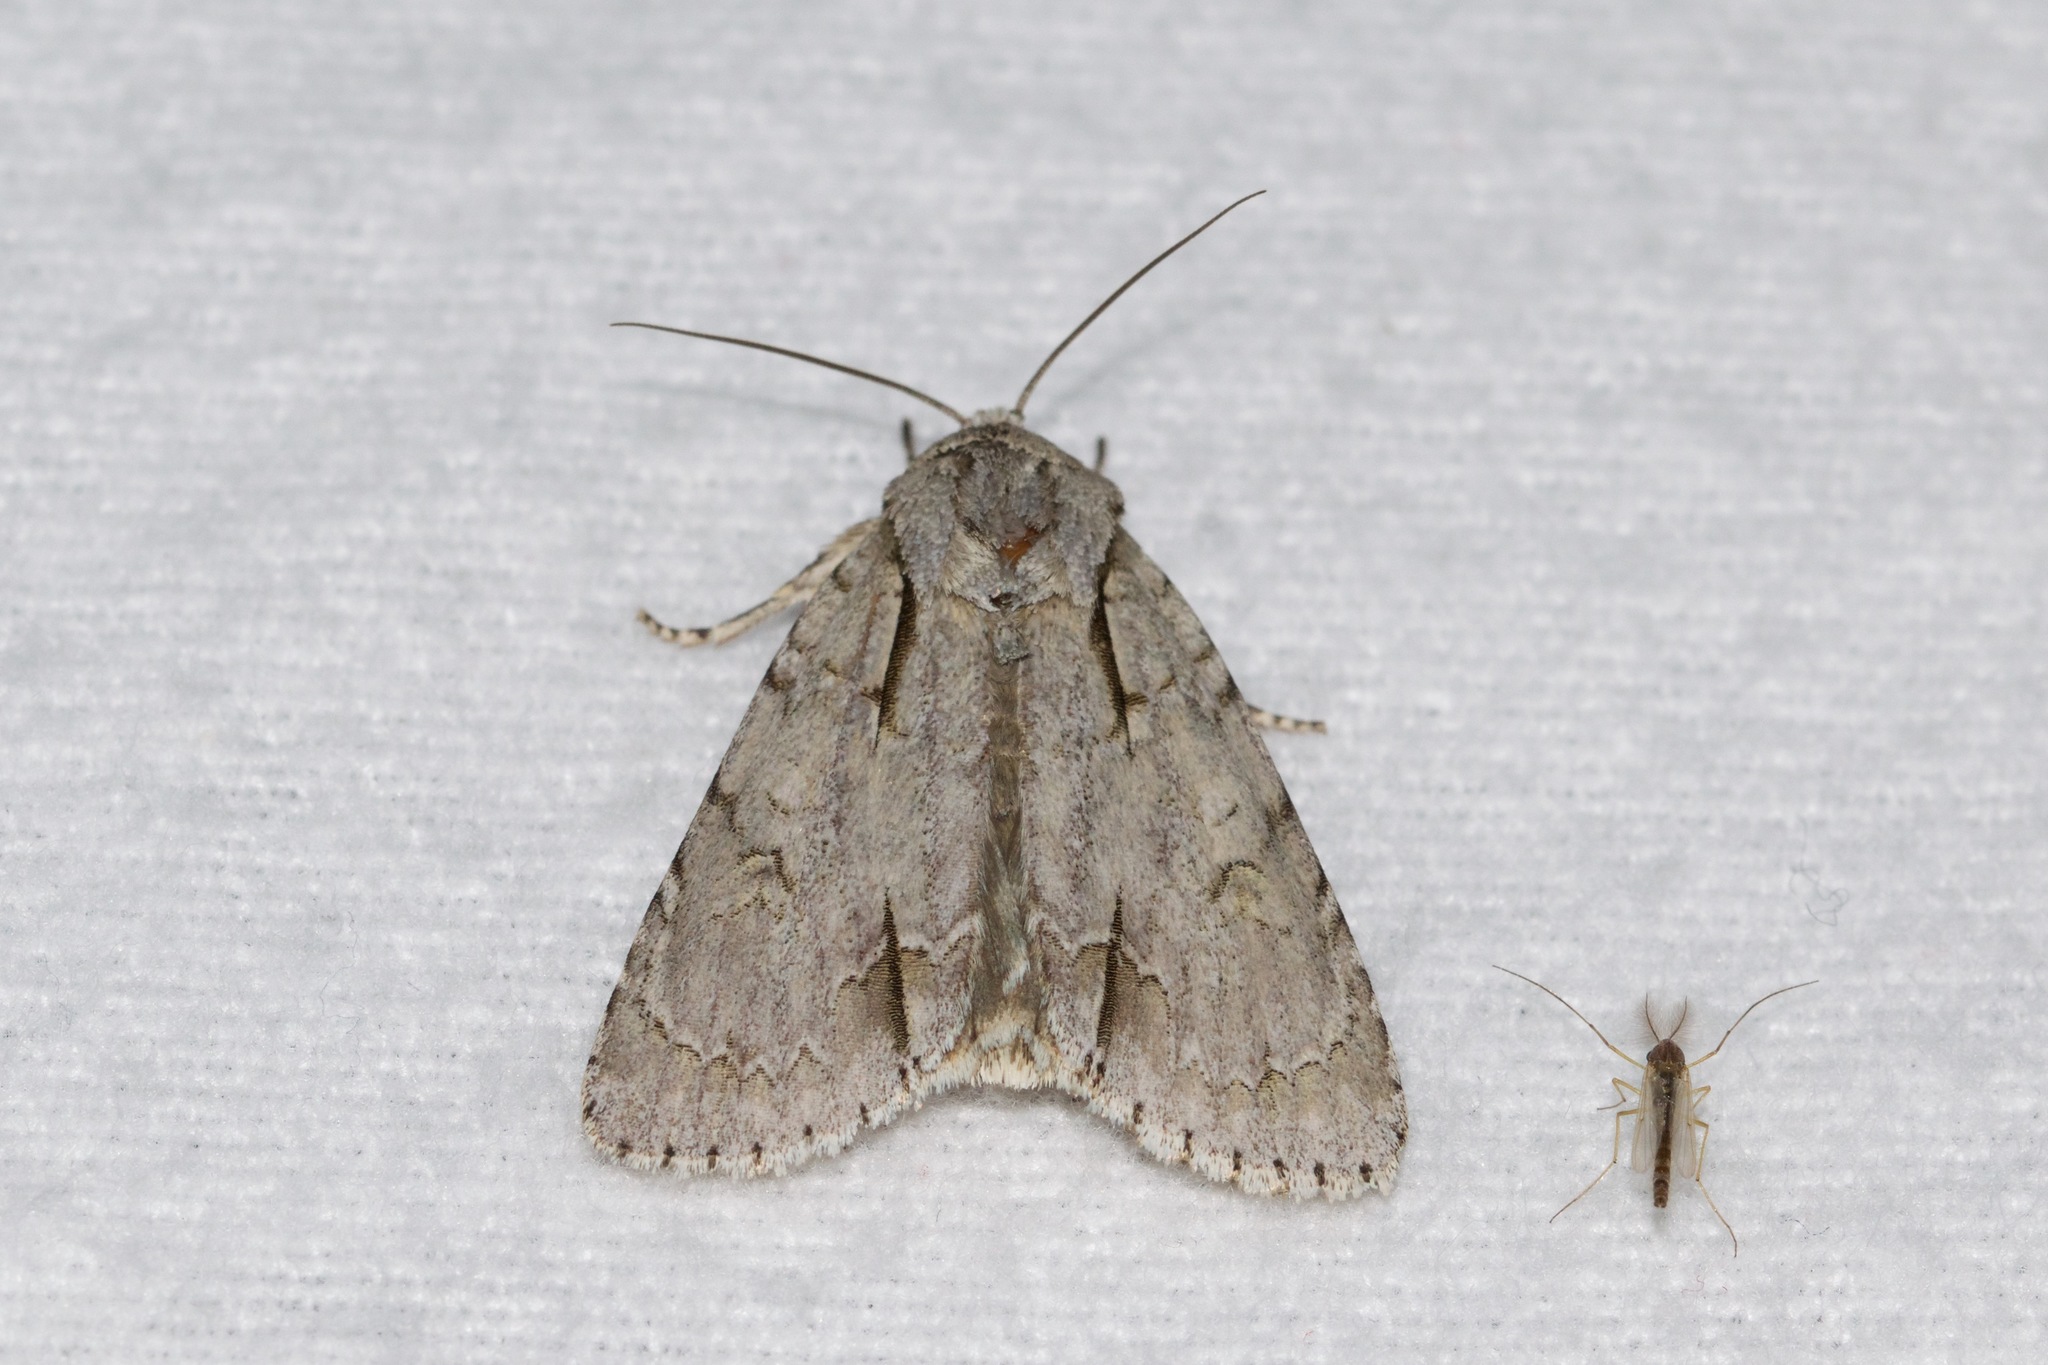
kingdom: Animalia
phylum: Arthropoda
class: Insecta
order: Lepidoptera
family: Noctuidae
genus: Acronicta
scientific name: Acronicta interrupta
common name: Interrupted dagger
